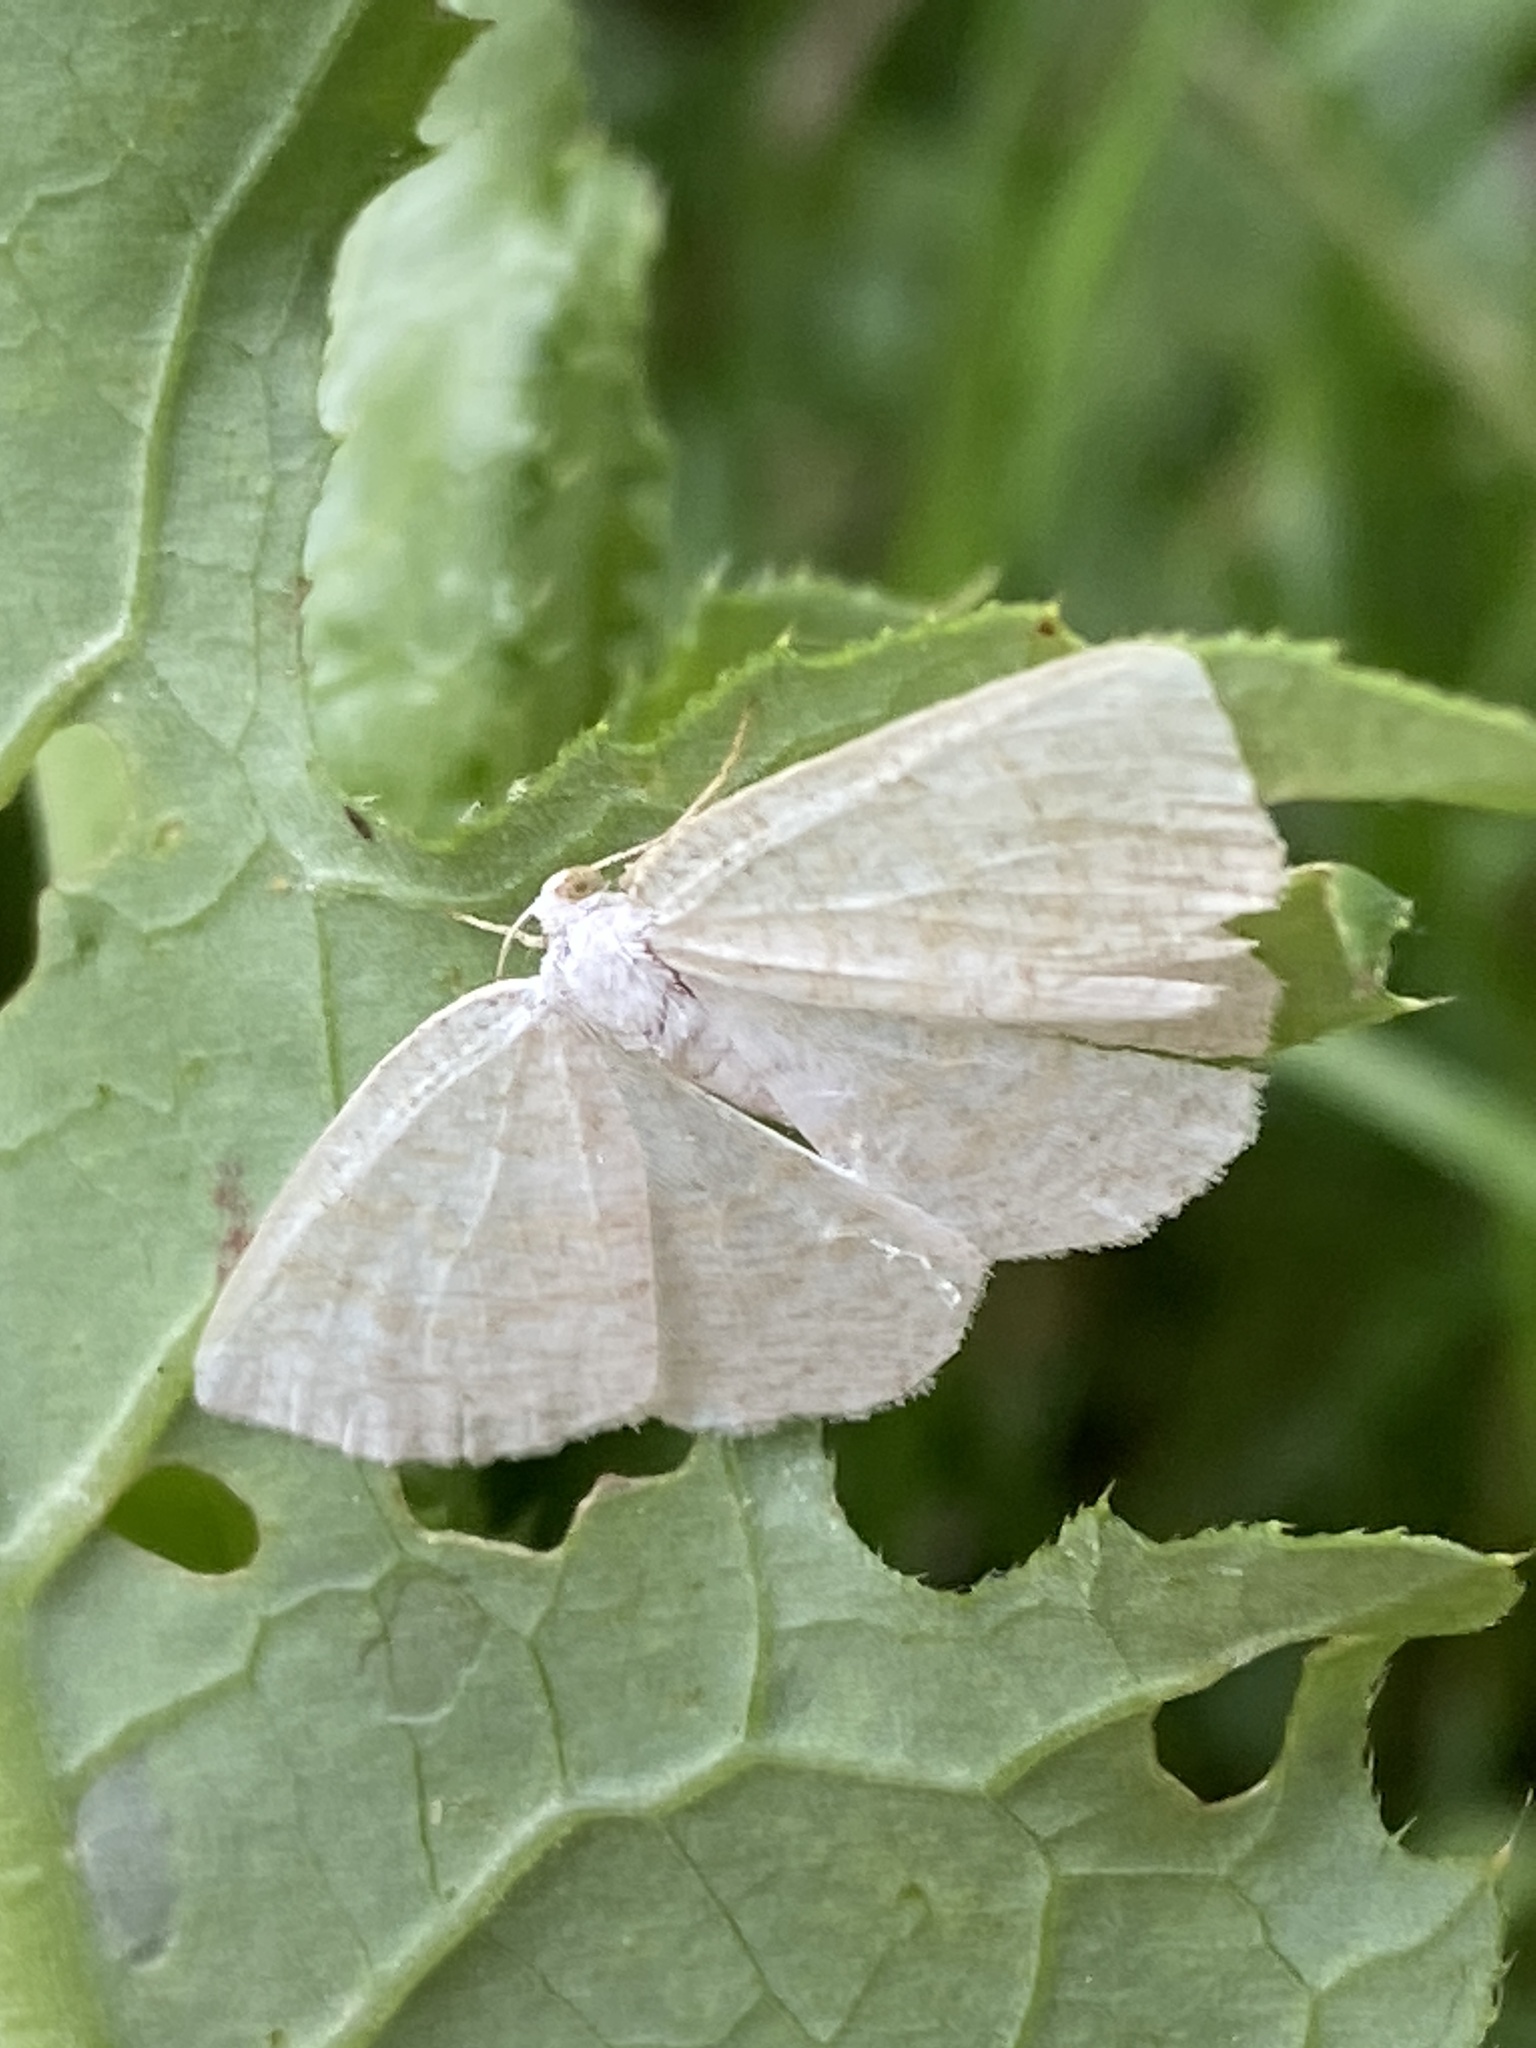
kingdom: Animalia
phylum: Arthropoda
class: Insecta
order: Lepidoptera
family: Geometridae
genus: Cabera
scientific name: Cabera exanthemata
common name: Common wave
